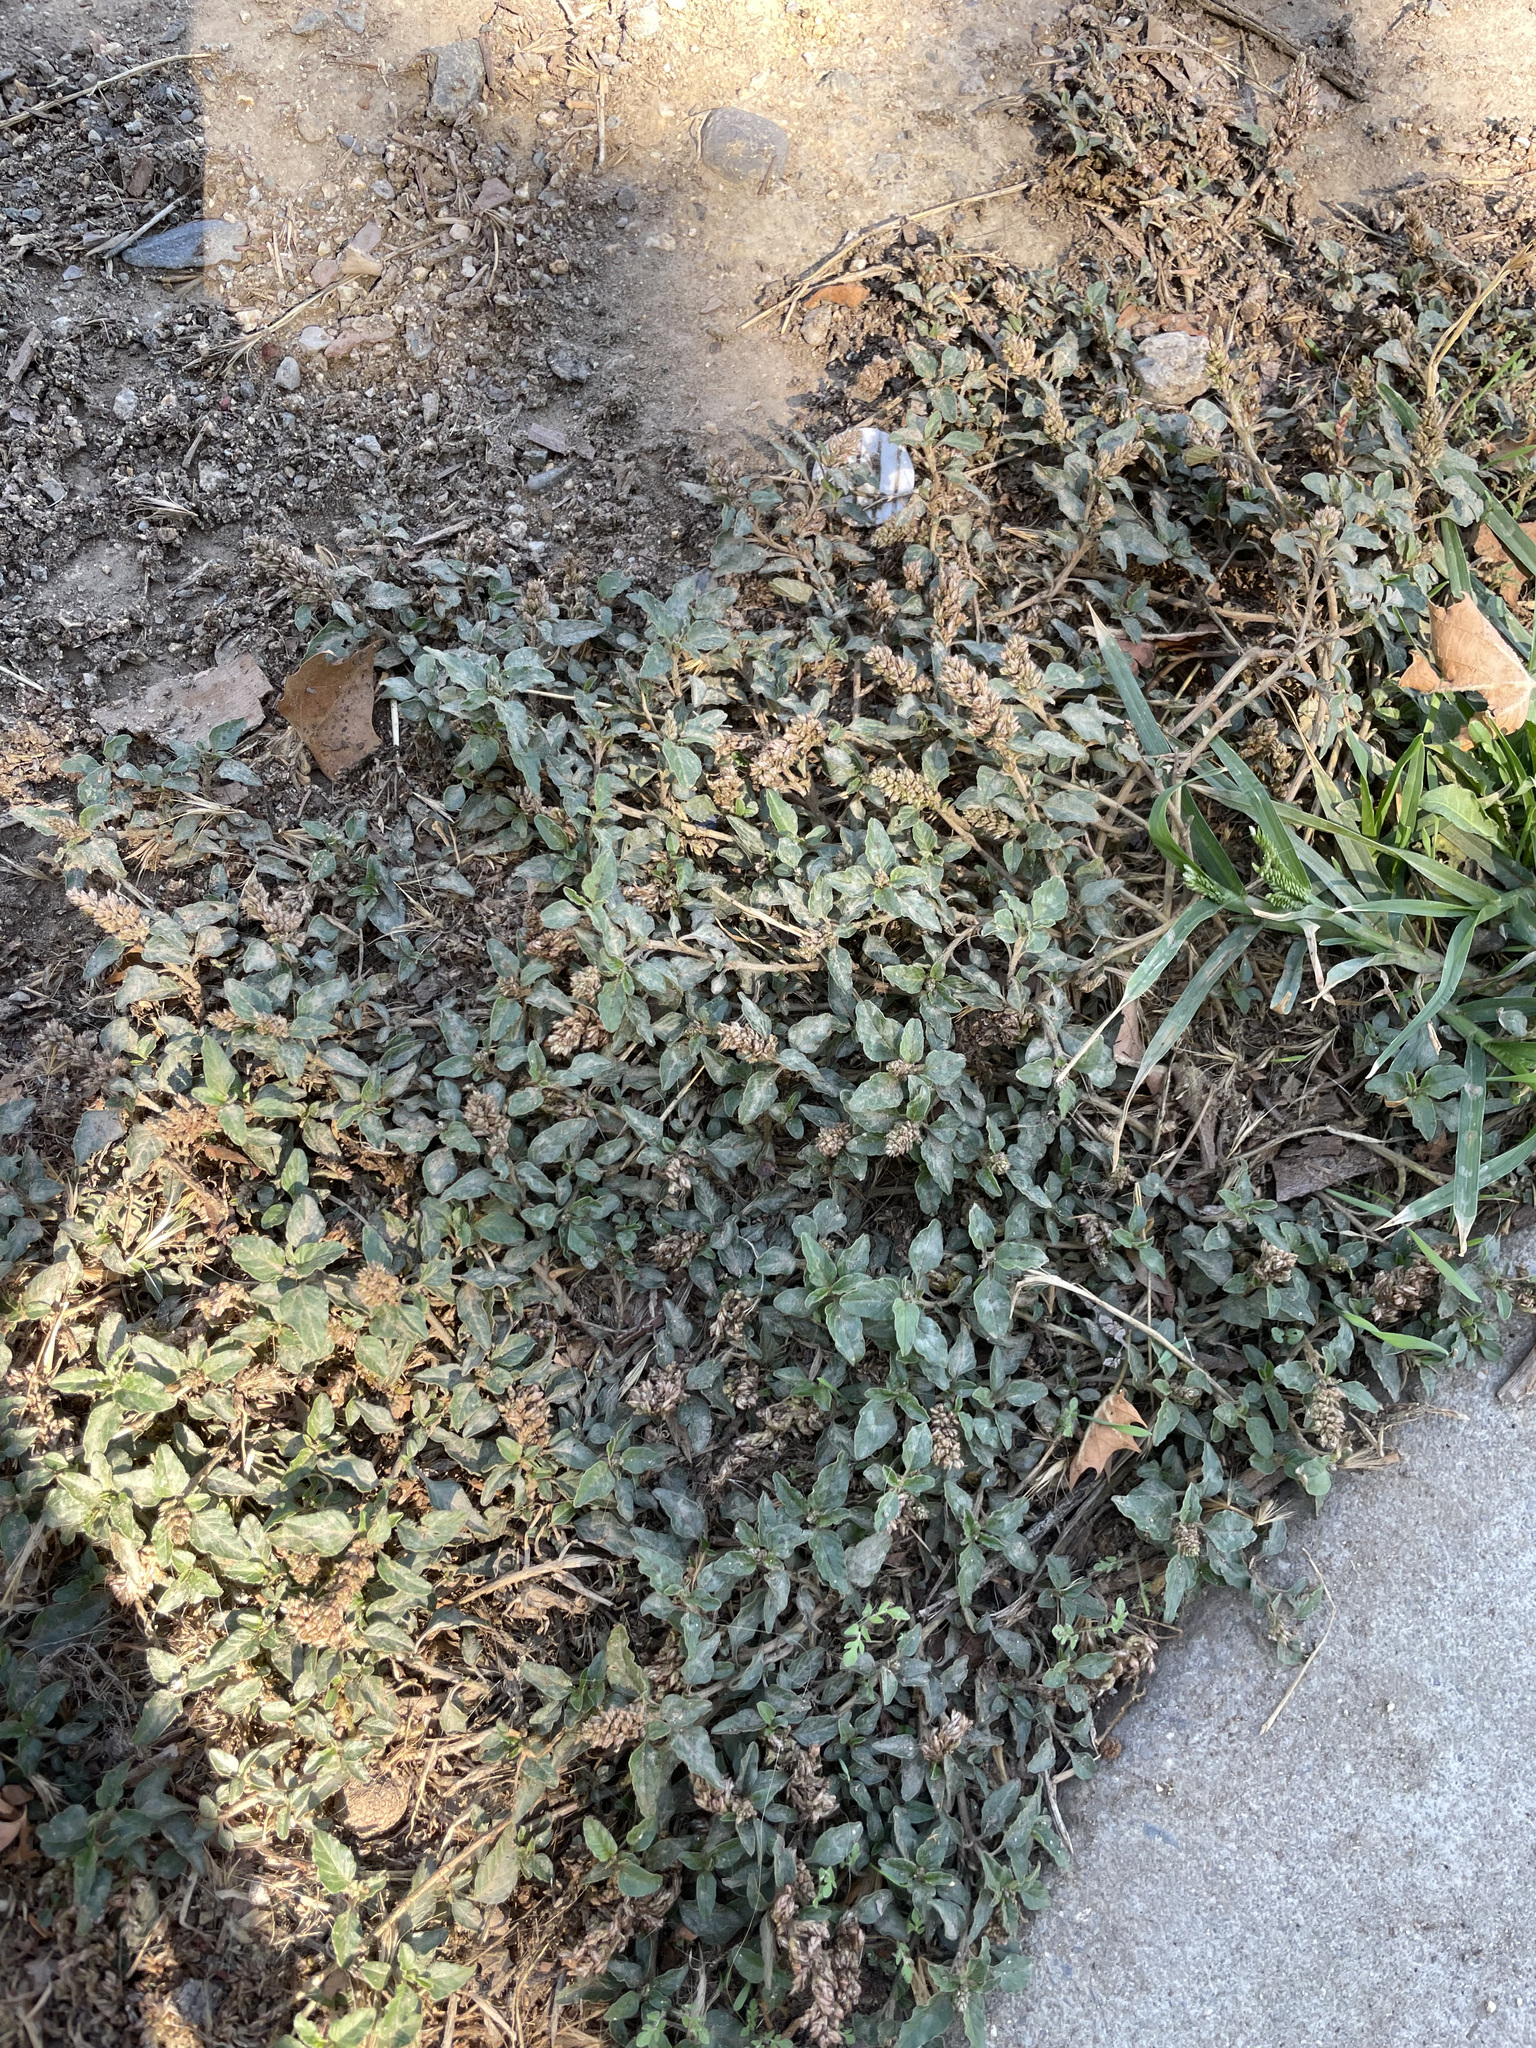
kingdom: Plantae
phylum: Tracheophyta
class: Magnoliopsida
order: Caryophyllales
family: Amaranthaceae
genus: Amaranthus
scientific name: Amaranthus deflexus
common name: Perennial pigweed
